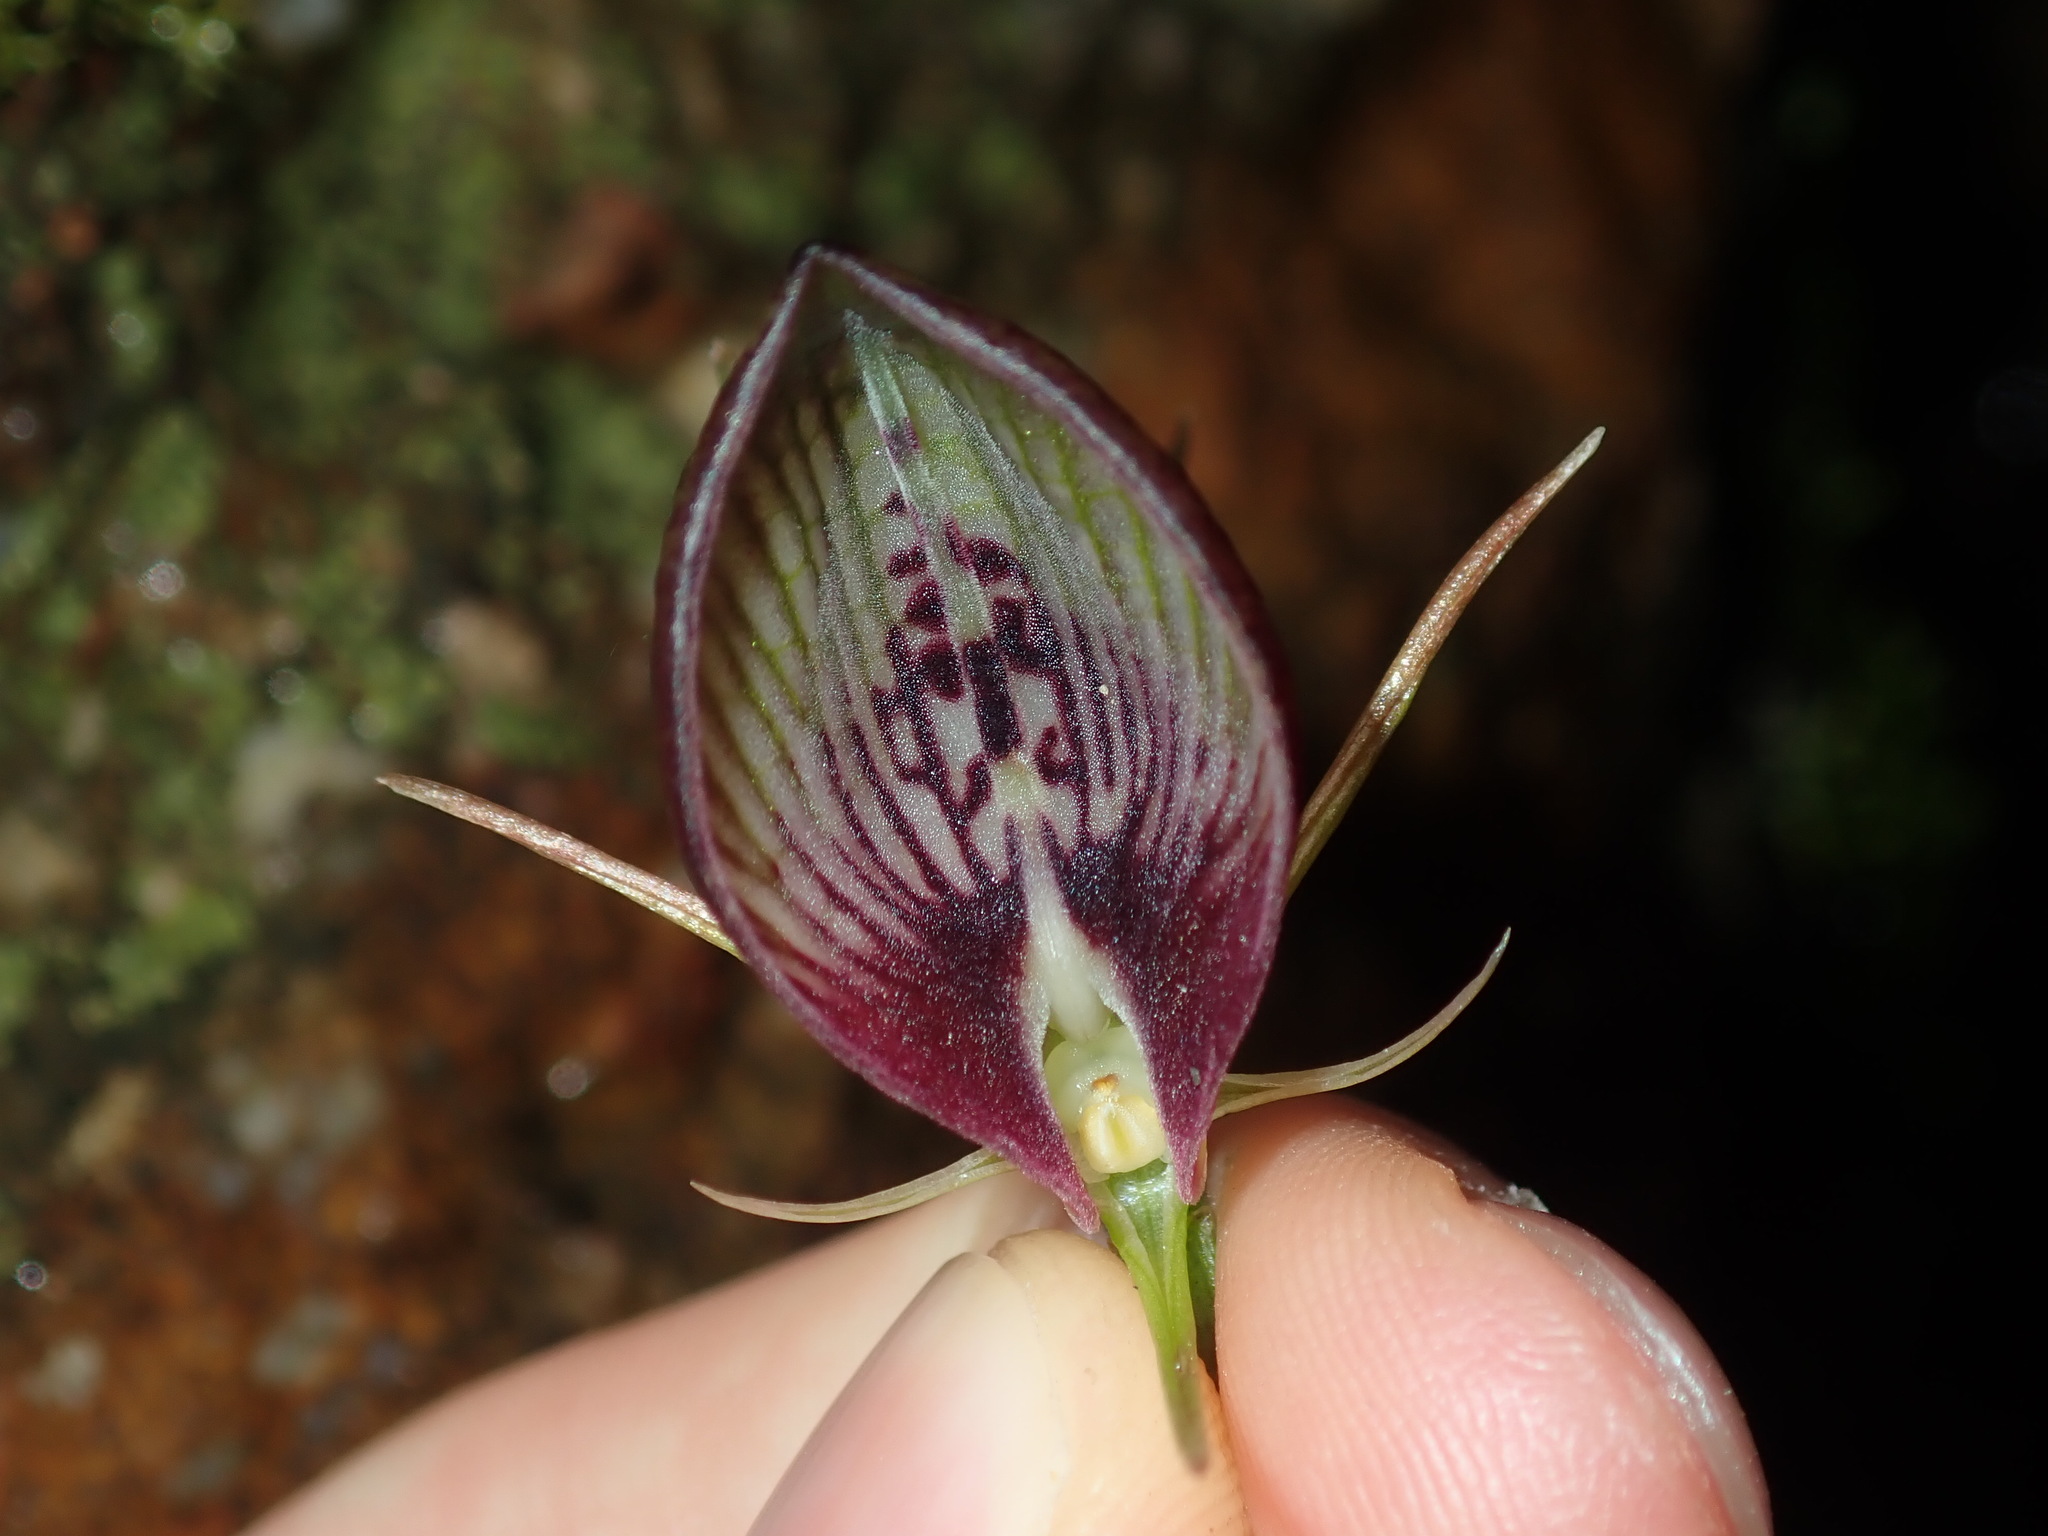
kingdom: Plantae
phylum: Tracheophyta
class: Liliopsida
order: Asparagales
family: Orchidaceae
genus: Cryptostylis
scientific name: Cryptostylis erecta
